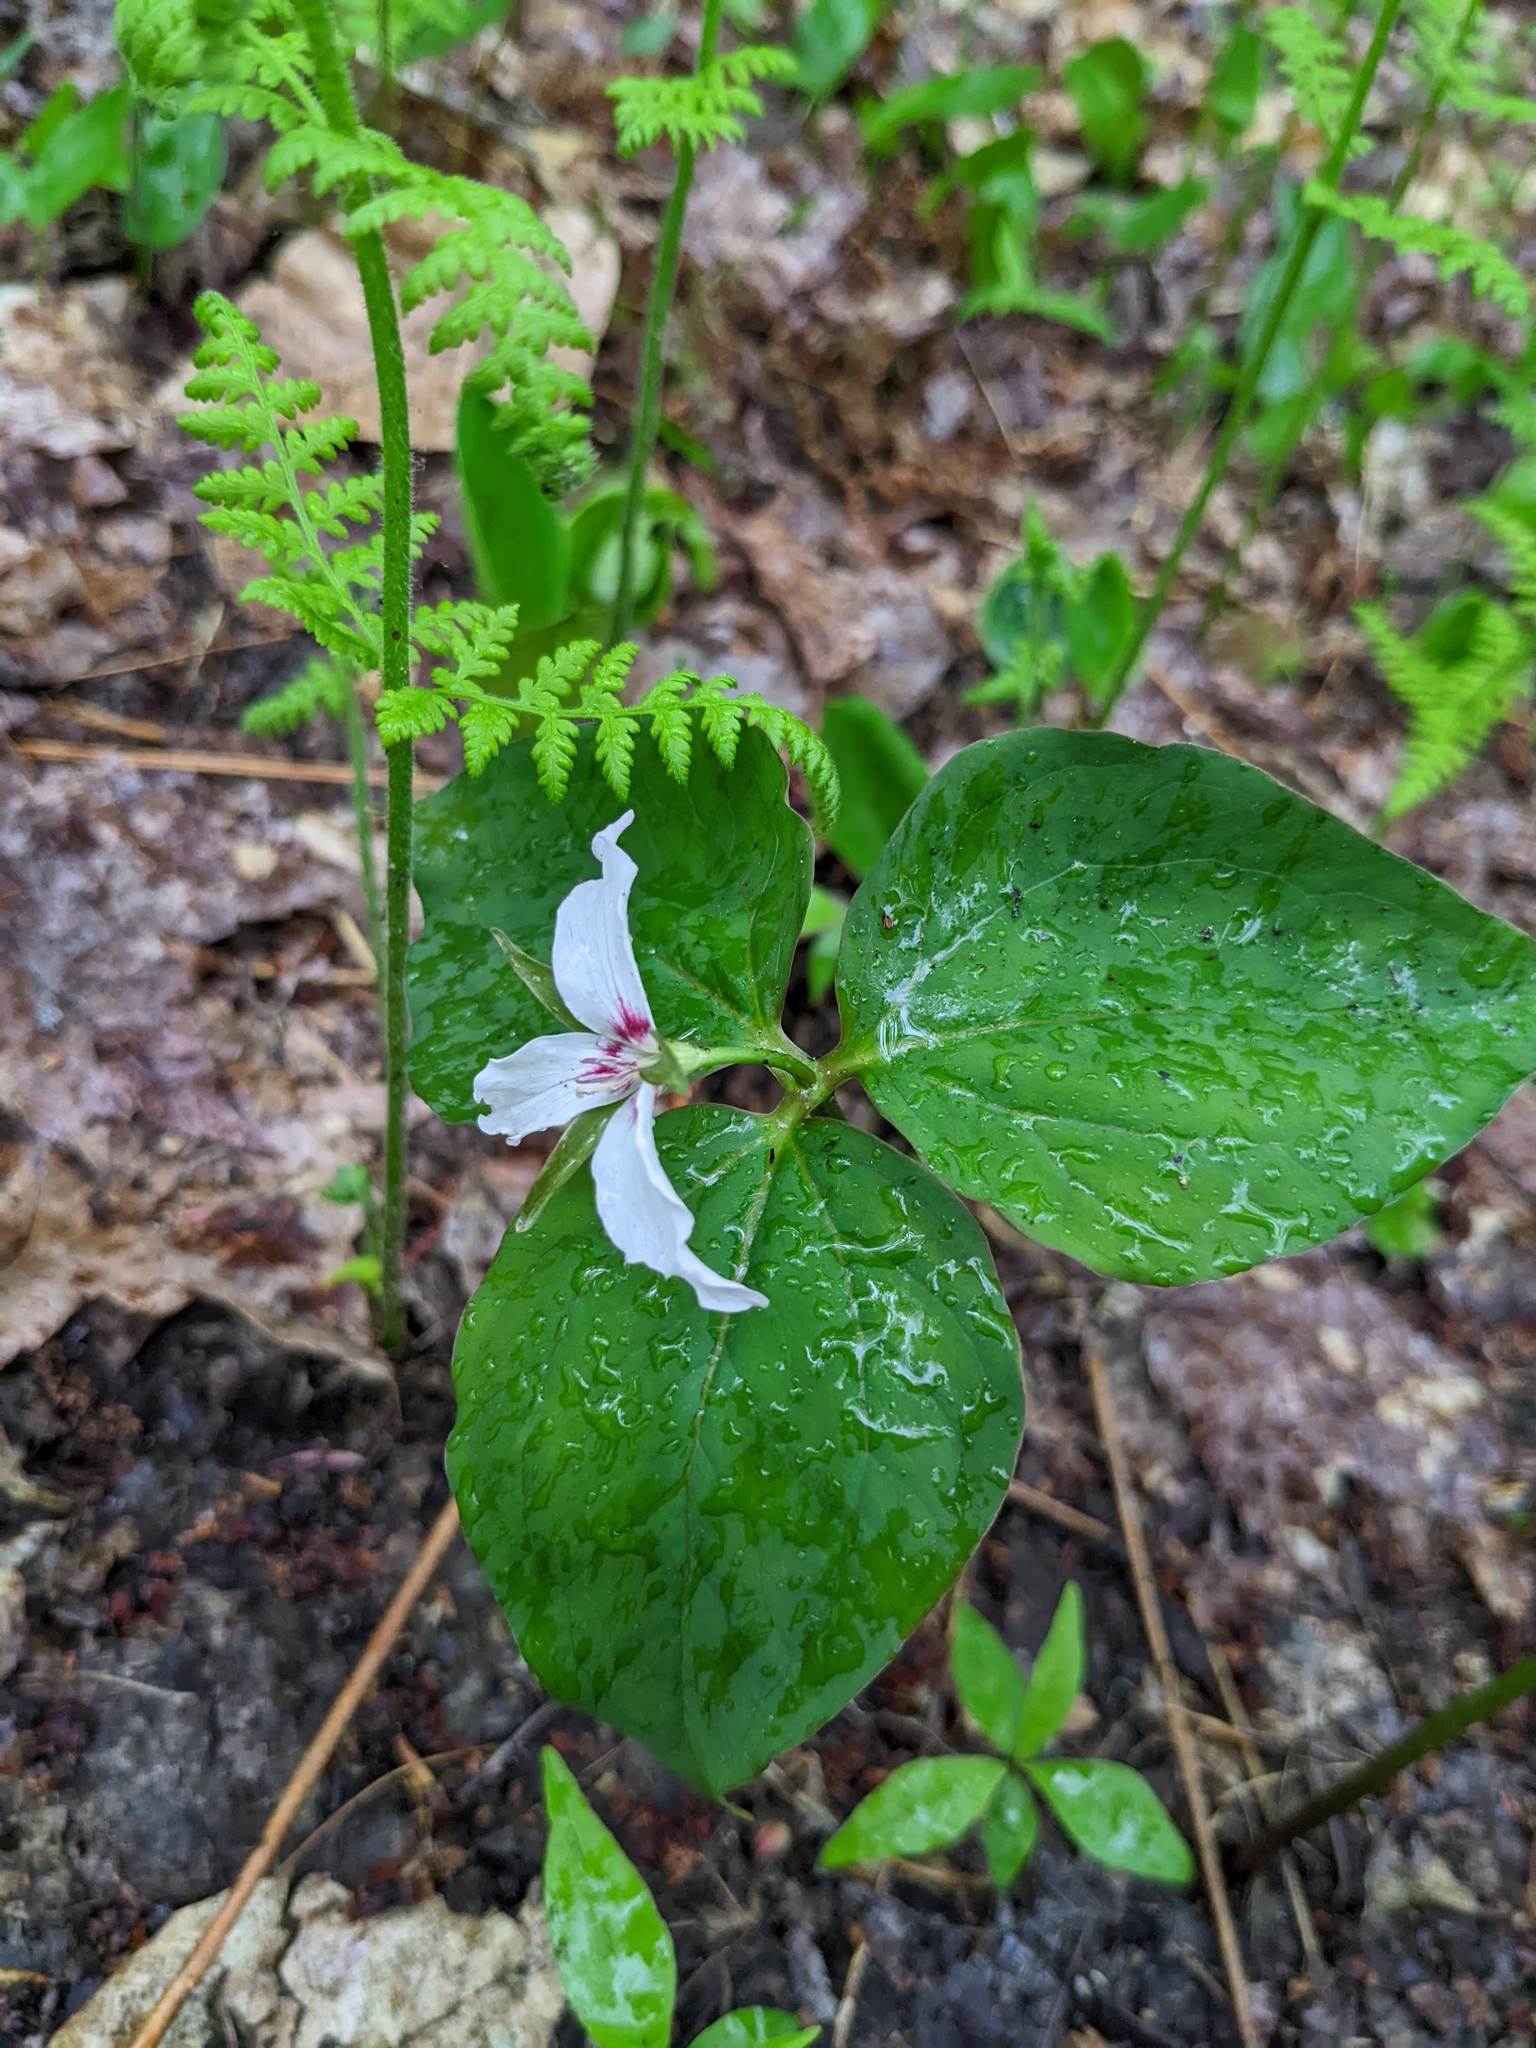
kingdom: Plantae
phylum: Tracheophyta
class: Liliopsida
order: Liliales
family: Melanthiaceae
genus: Trillium
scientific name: Trillium undulatum
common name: Paint trillium
